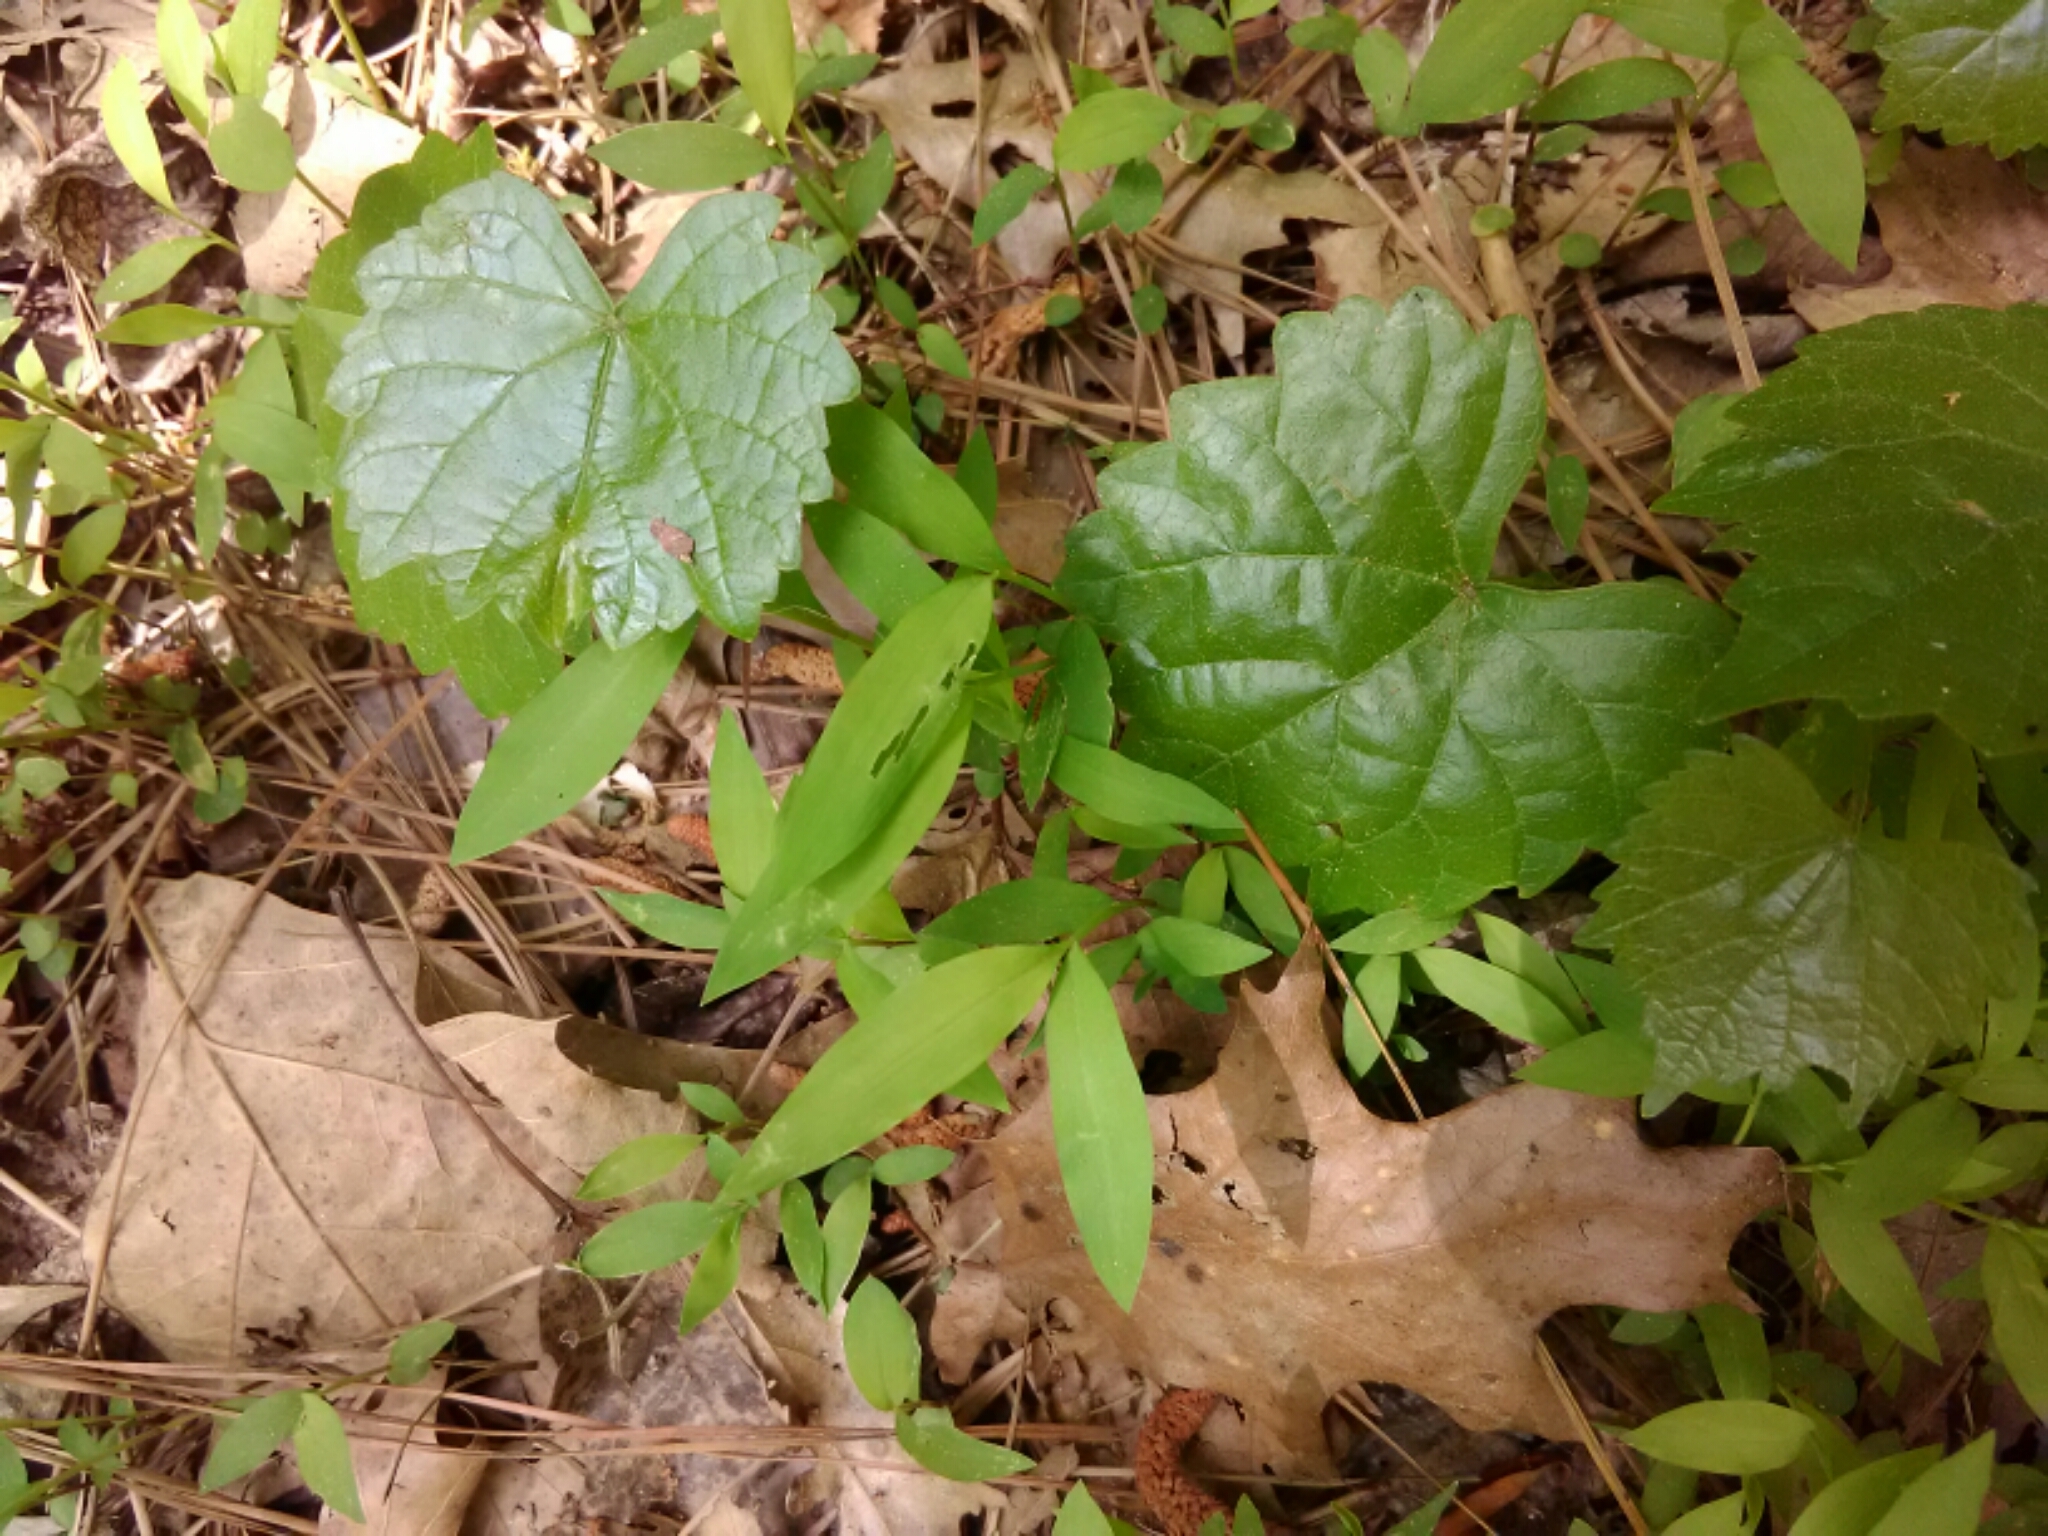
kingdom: Plantae
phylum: Tracheophyta
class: Magnoliopsida
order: Vitales
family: Vitaceae
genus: Vitis
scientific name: Vitis rotundifolia
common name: Muscadine grape
